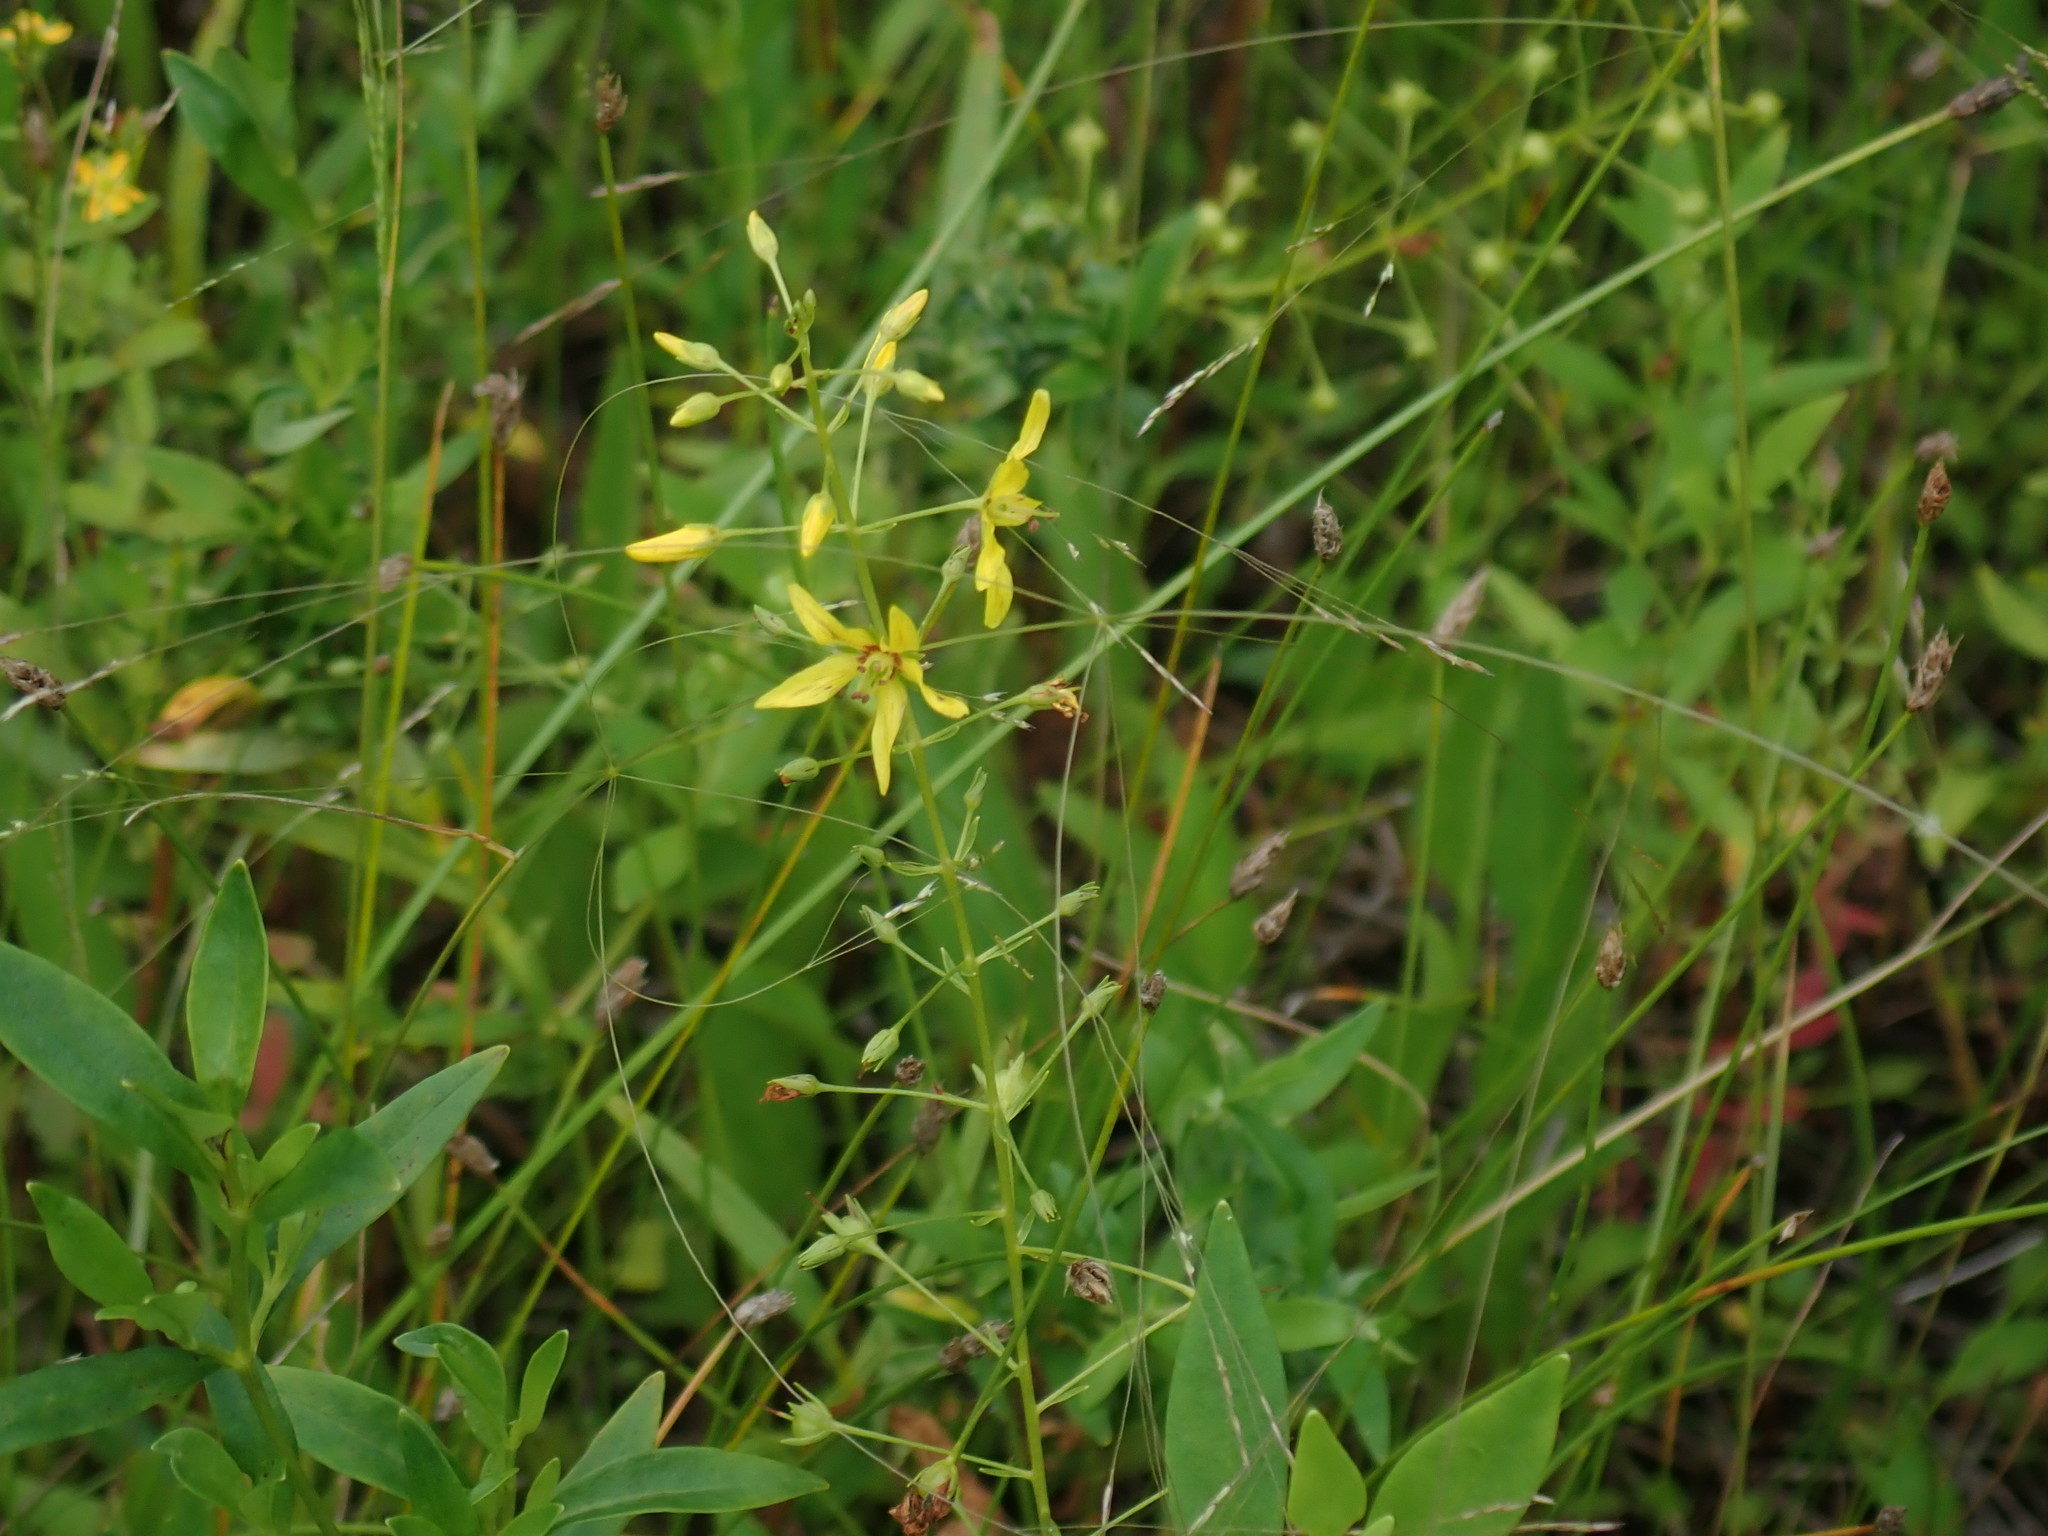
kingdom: Plantae
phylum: Tracheophyta
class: Magnoliopsida
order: Ericales
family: Primulaceae
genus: Lysimachia
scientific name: Lysimachia terrestris
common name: Lake loosestrife
